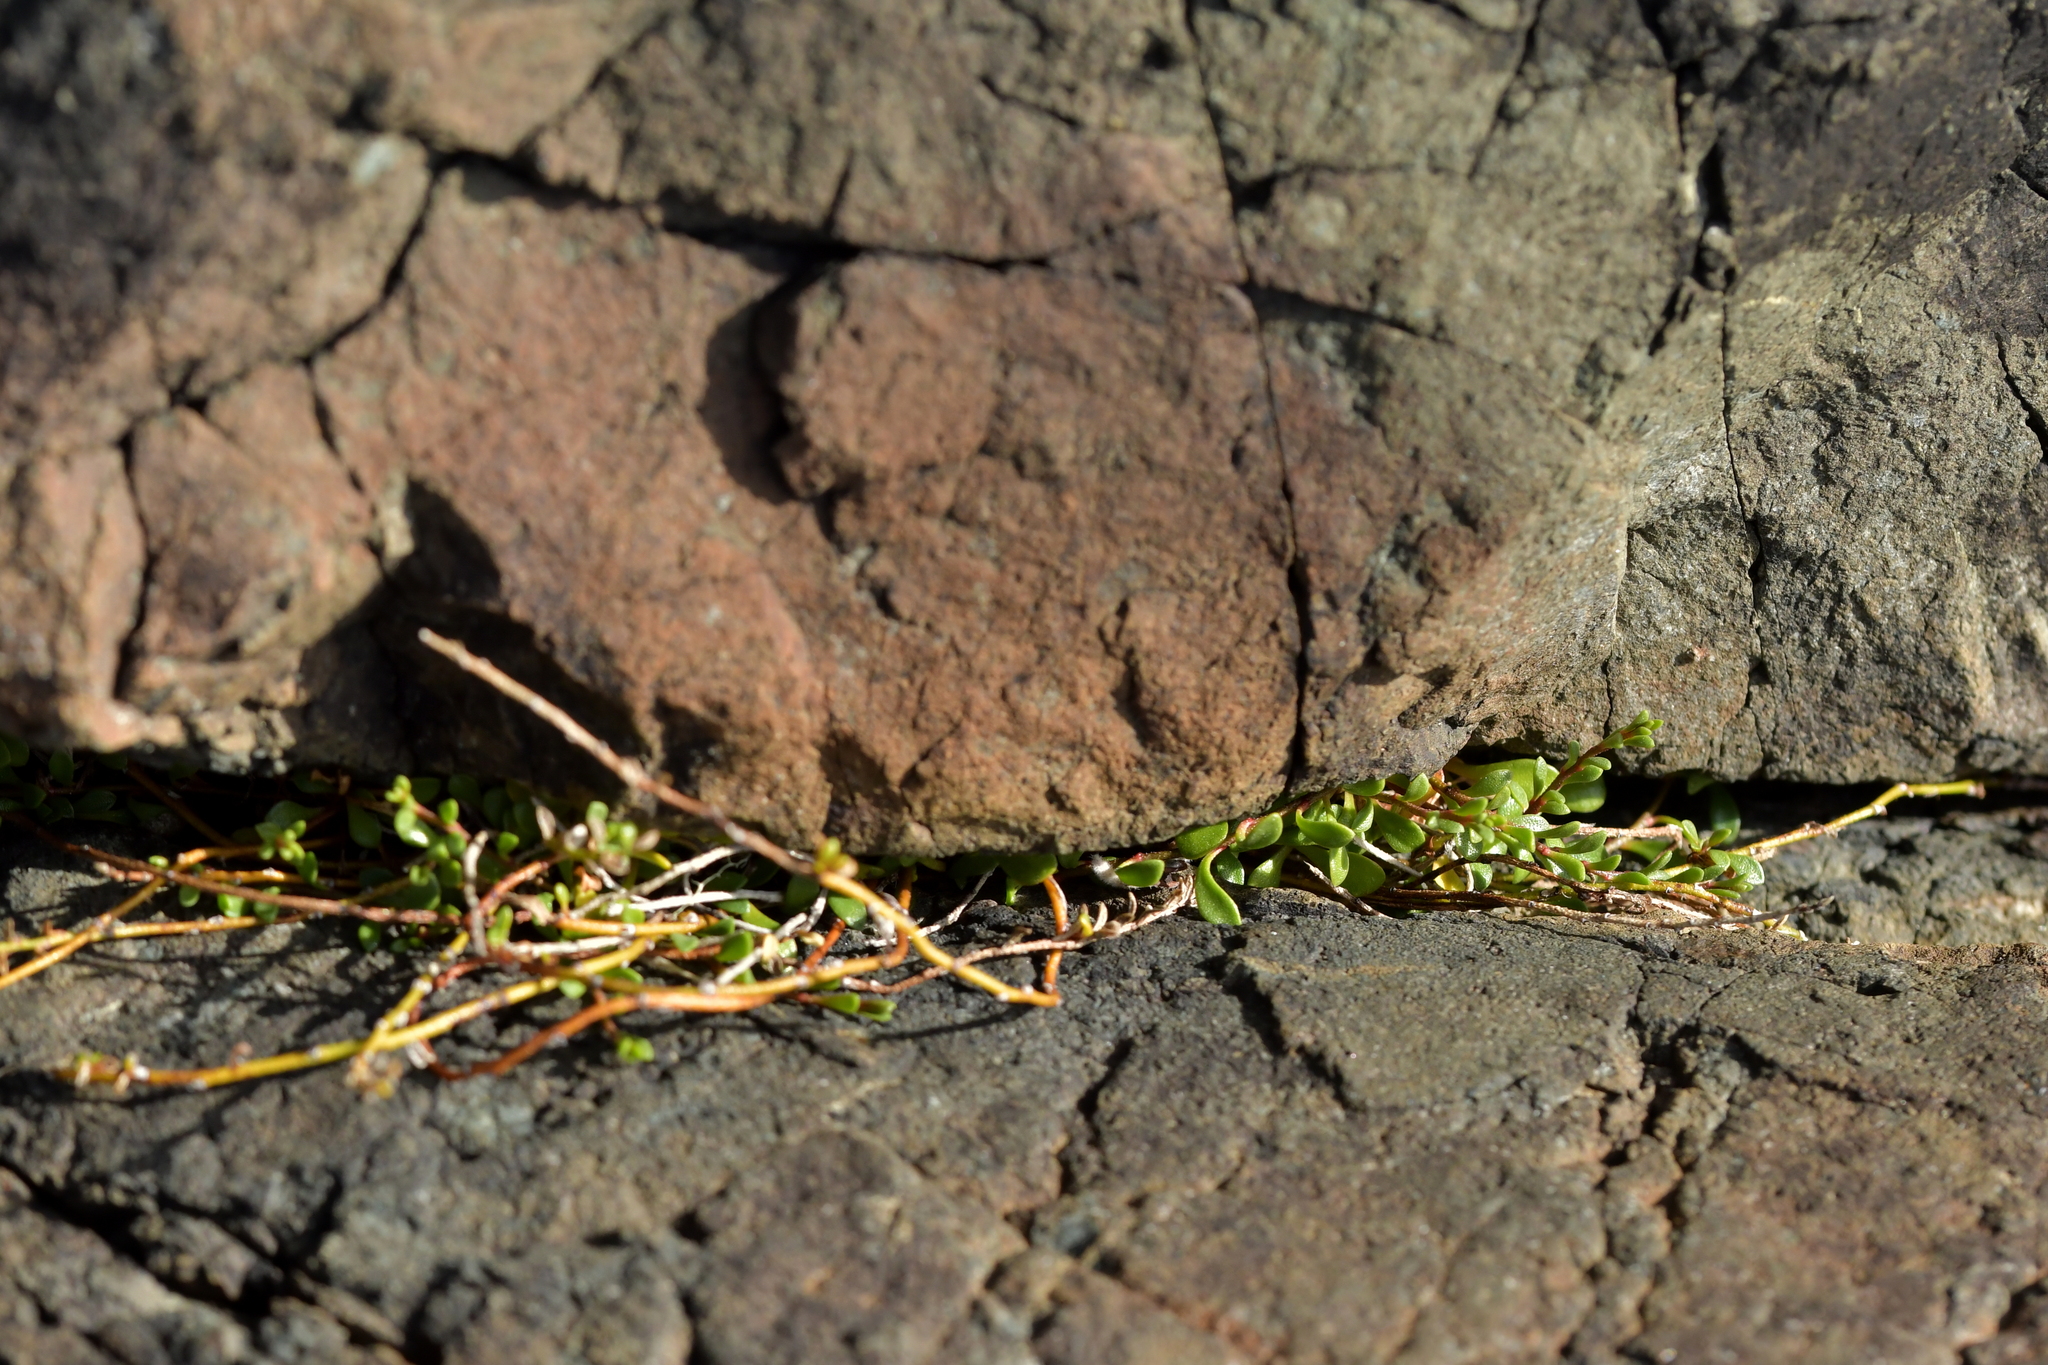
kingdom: Plantae
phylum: Tracheophyta
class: Magnoliopsida
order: Ericales
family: Primulaceae
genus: Samolus
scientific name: Samolus repens
